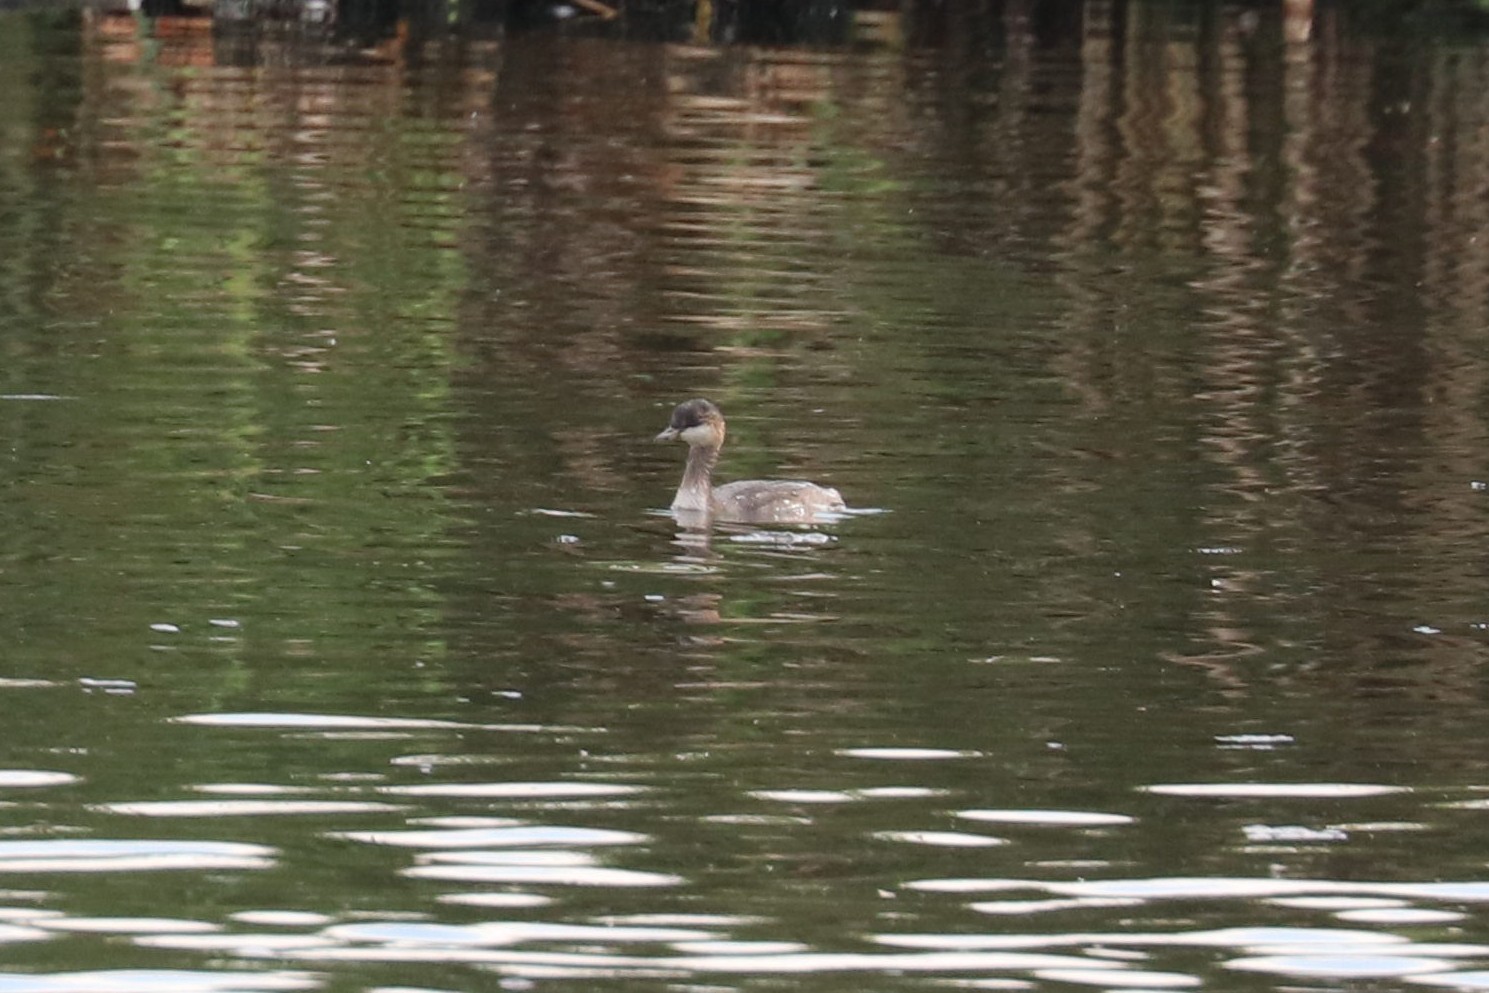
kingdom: Animalia
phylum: Chordata
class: Aves
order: Podicipediformes
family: Podicipedidae
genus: Podiceps
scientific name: Podiceps nigricollis
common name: Black-necked grebe
